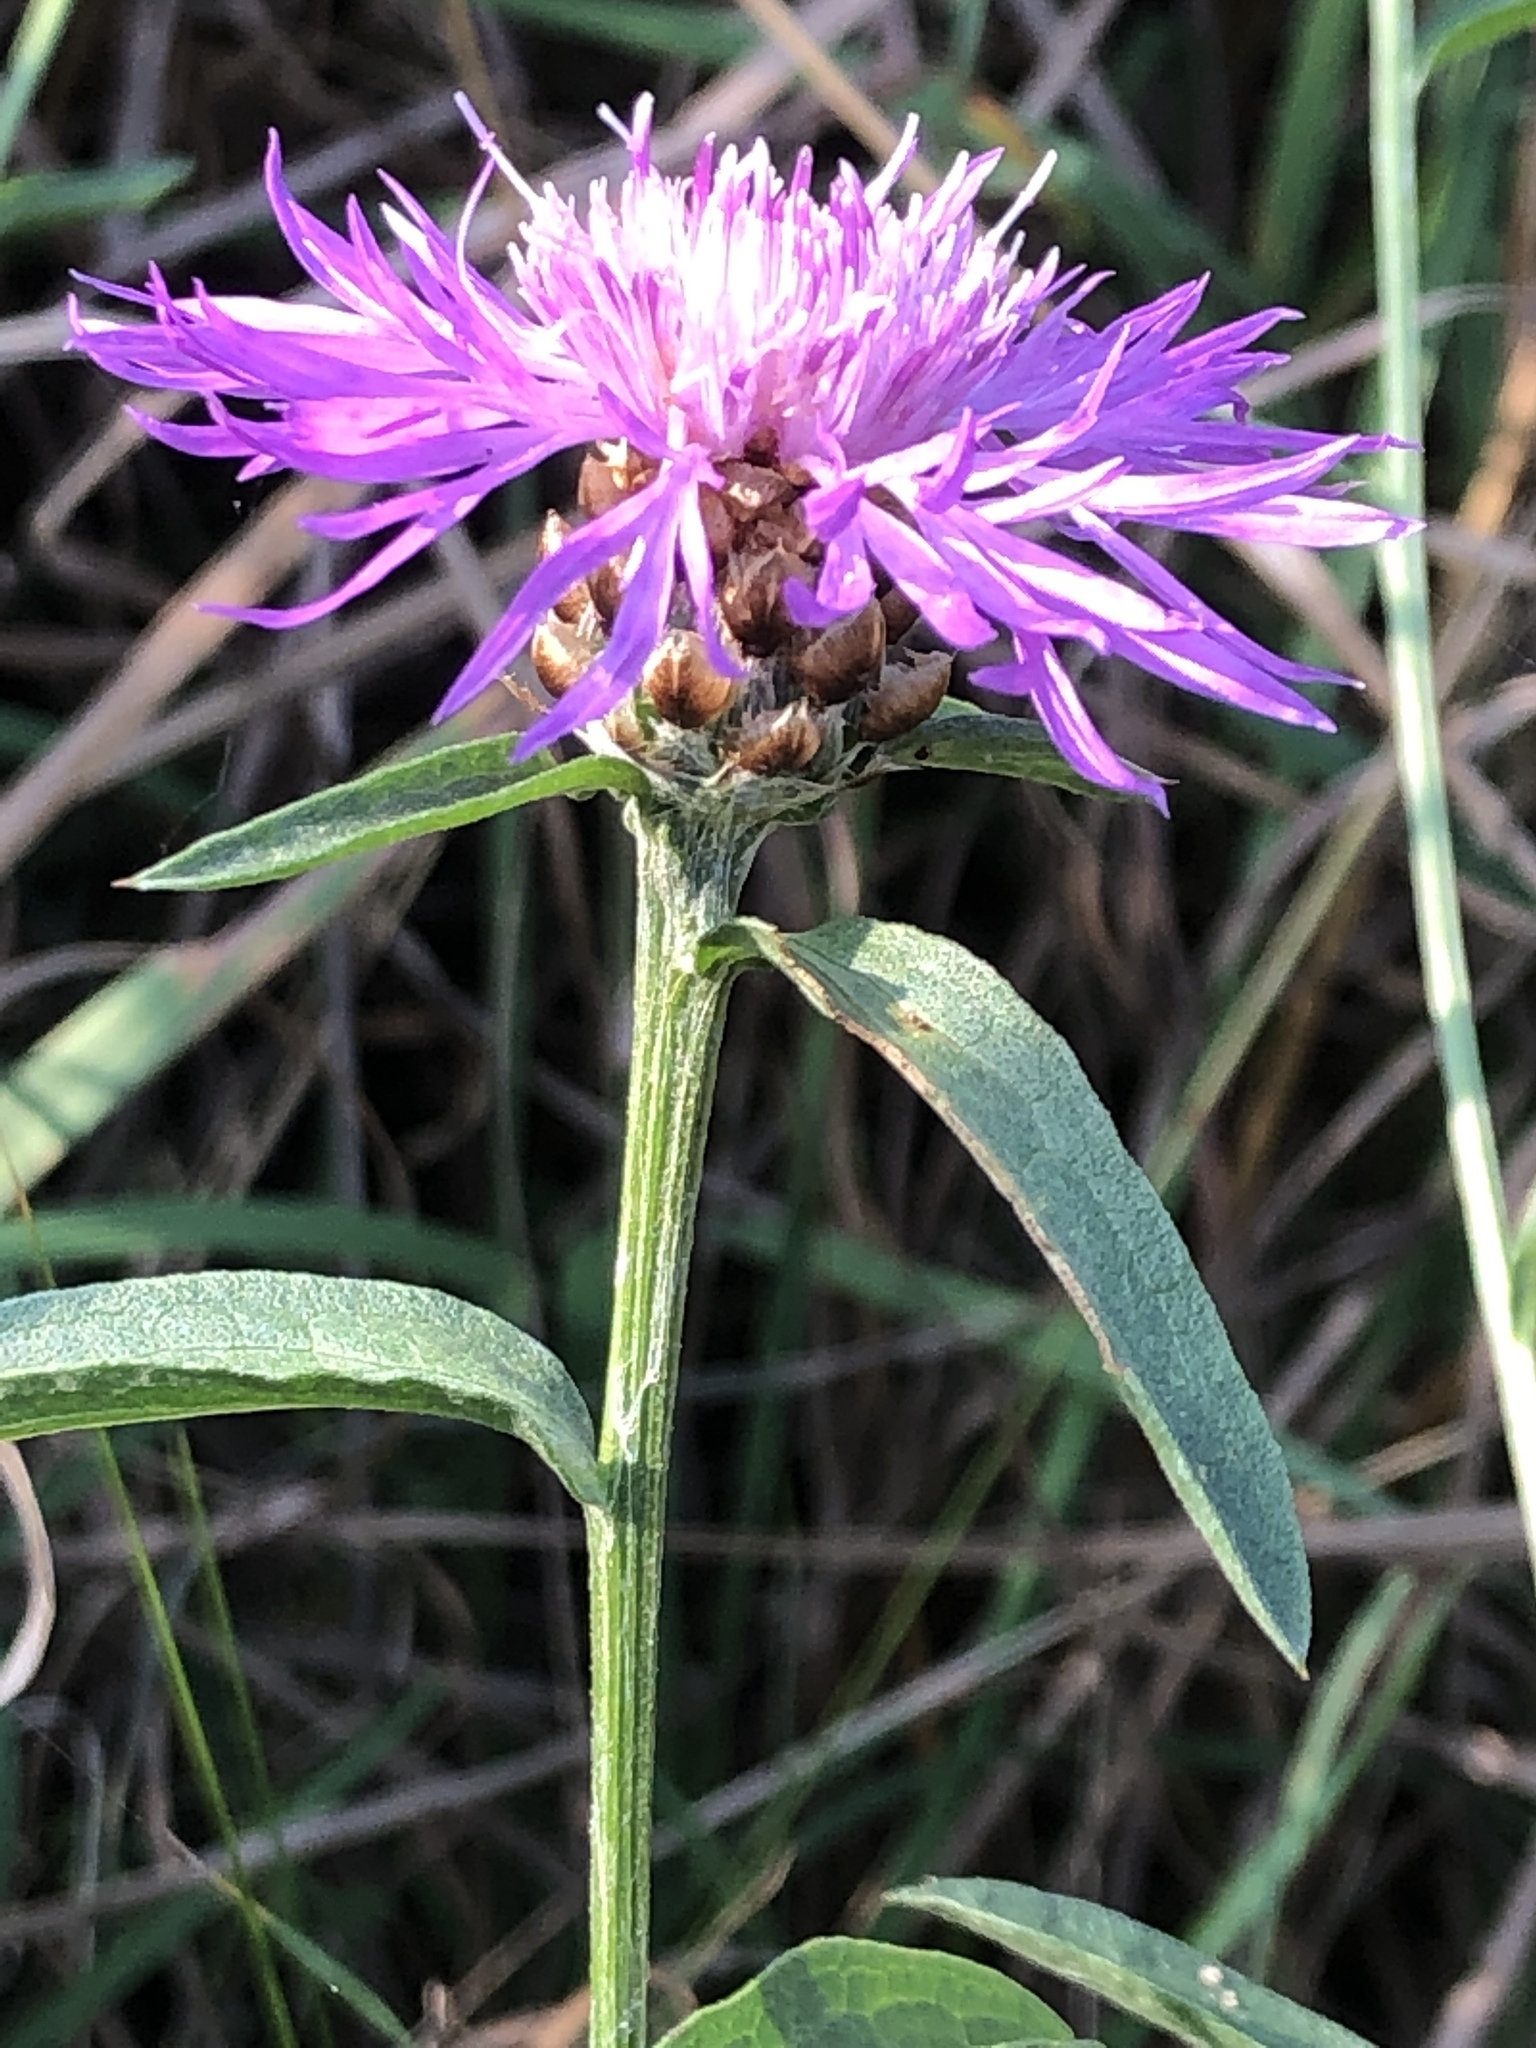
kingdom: Plantae
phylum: Tracheophyta
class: Magnoliopsida
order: Asterales
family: Asteraceae
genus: Centaurea
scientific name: Centaurea jacea
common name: Brown knapweed
